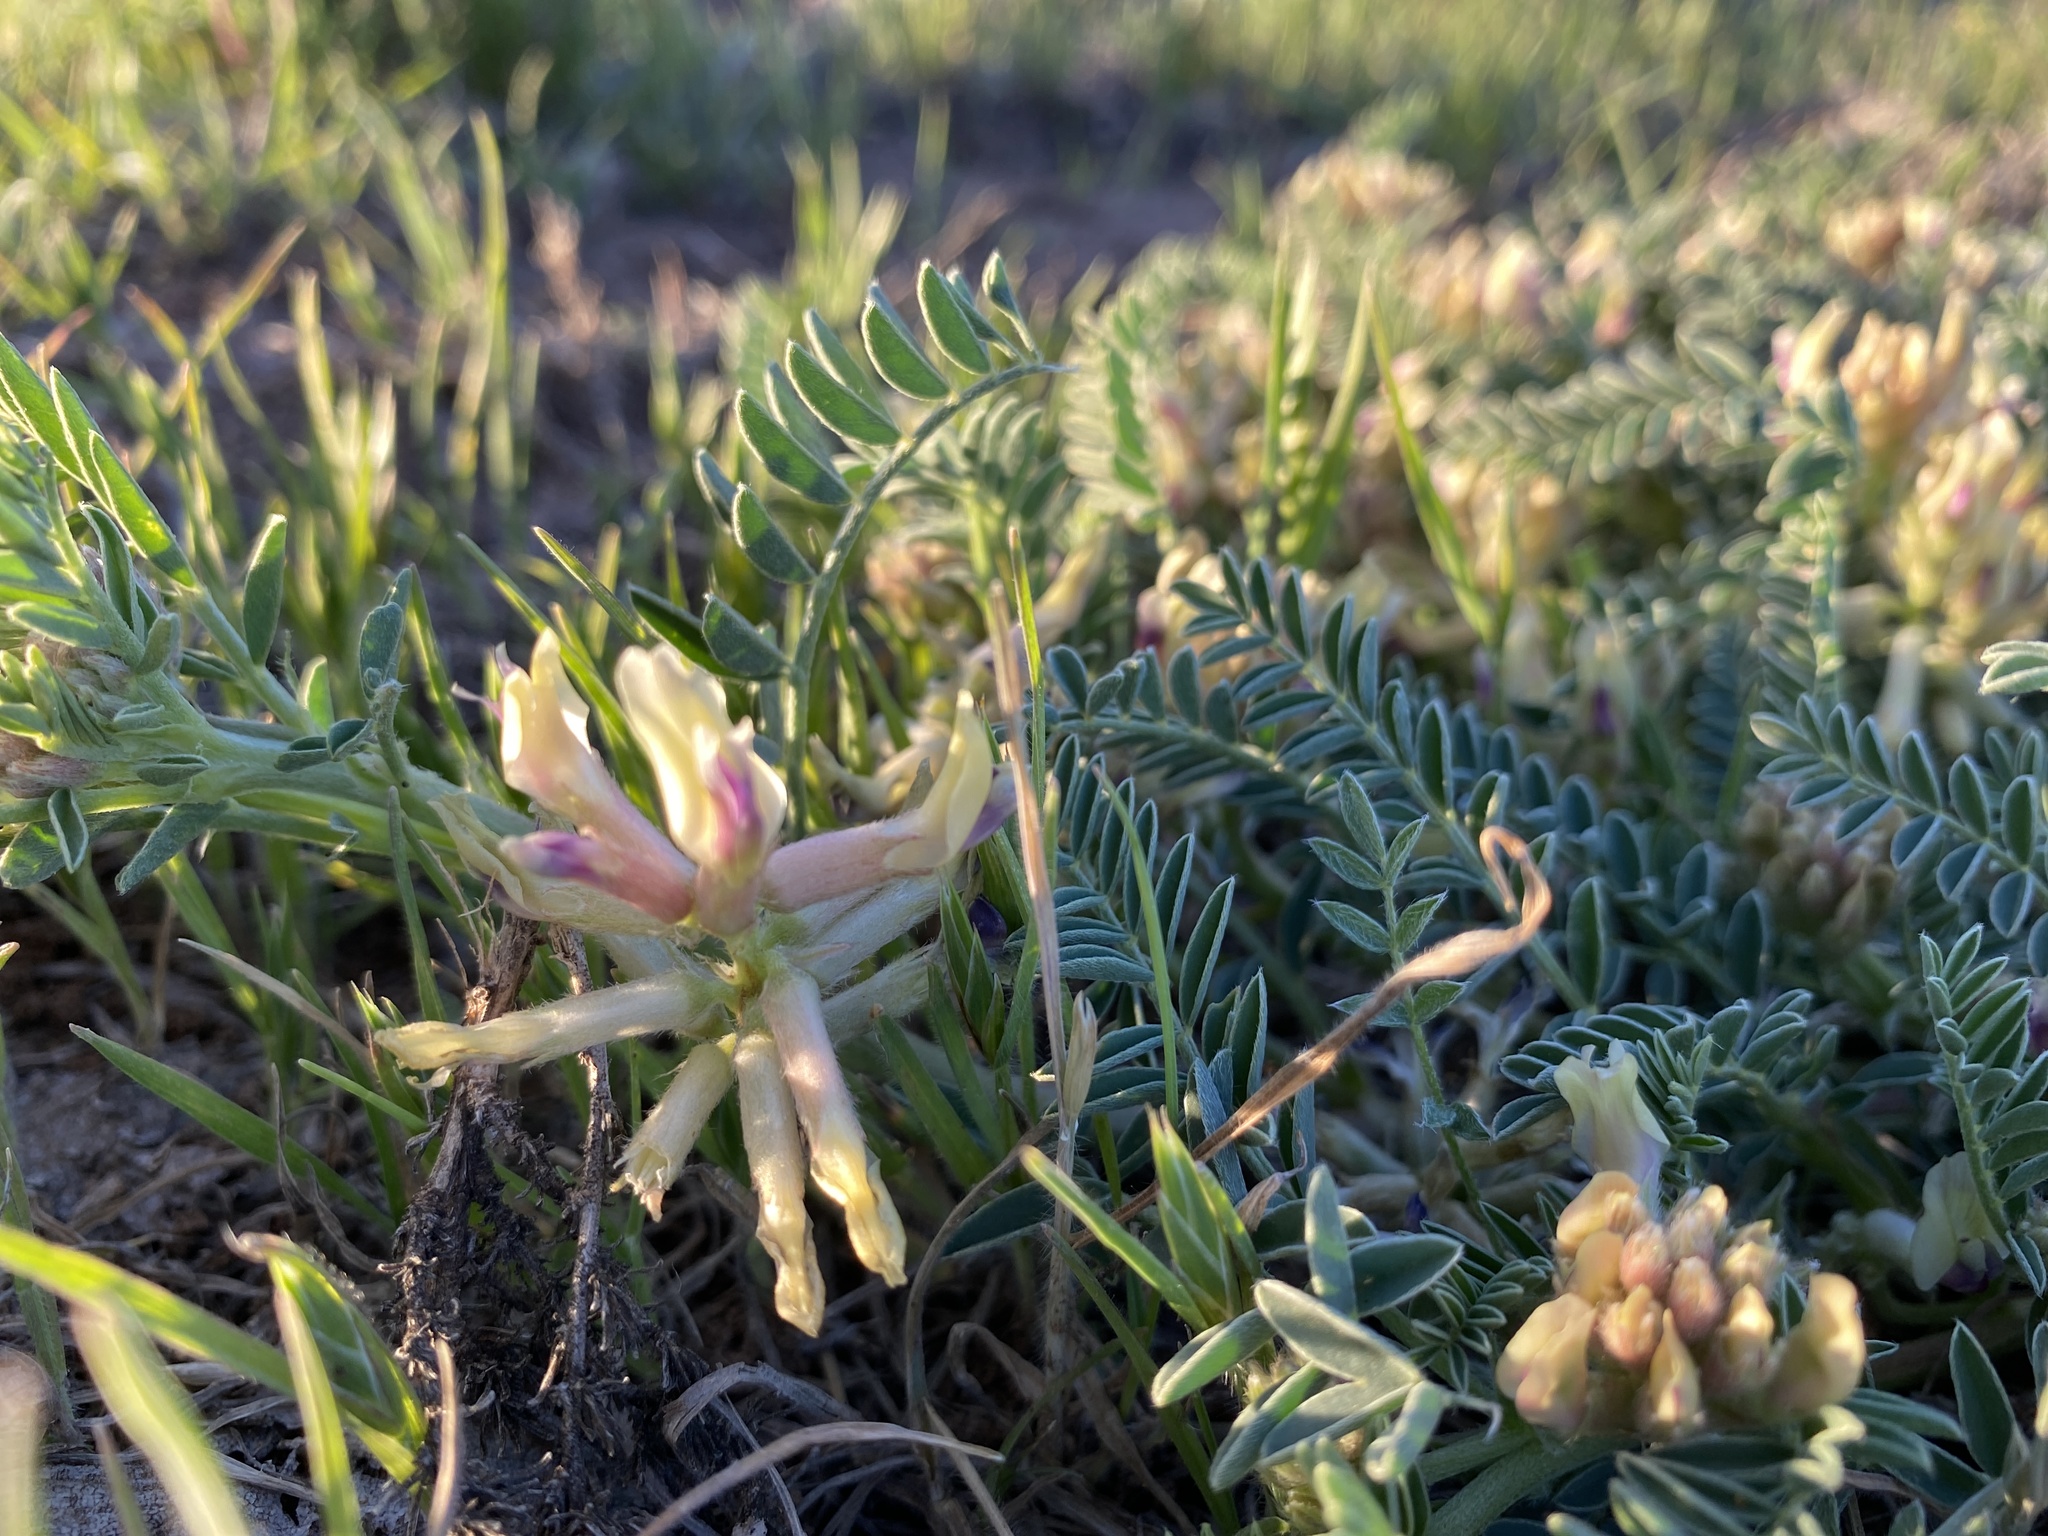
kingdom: Plantae
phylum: Tracheophyta
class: Magnoliopsida
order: Fabales
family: Fabaceae
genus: Astragalus
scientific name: Astragalus crassicarpus
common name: Ground-plum milk-vetch
